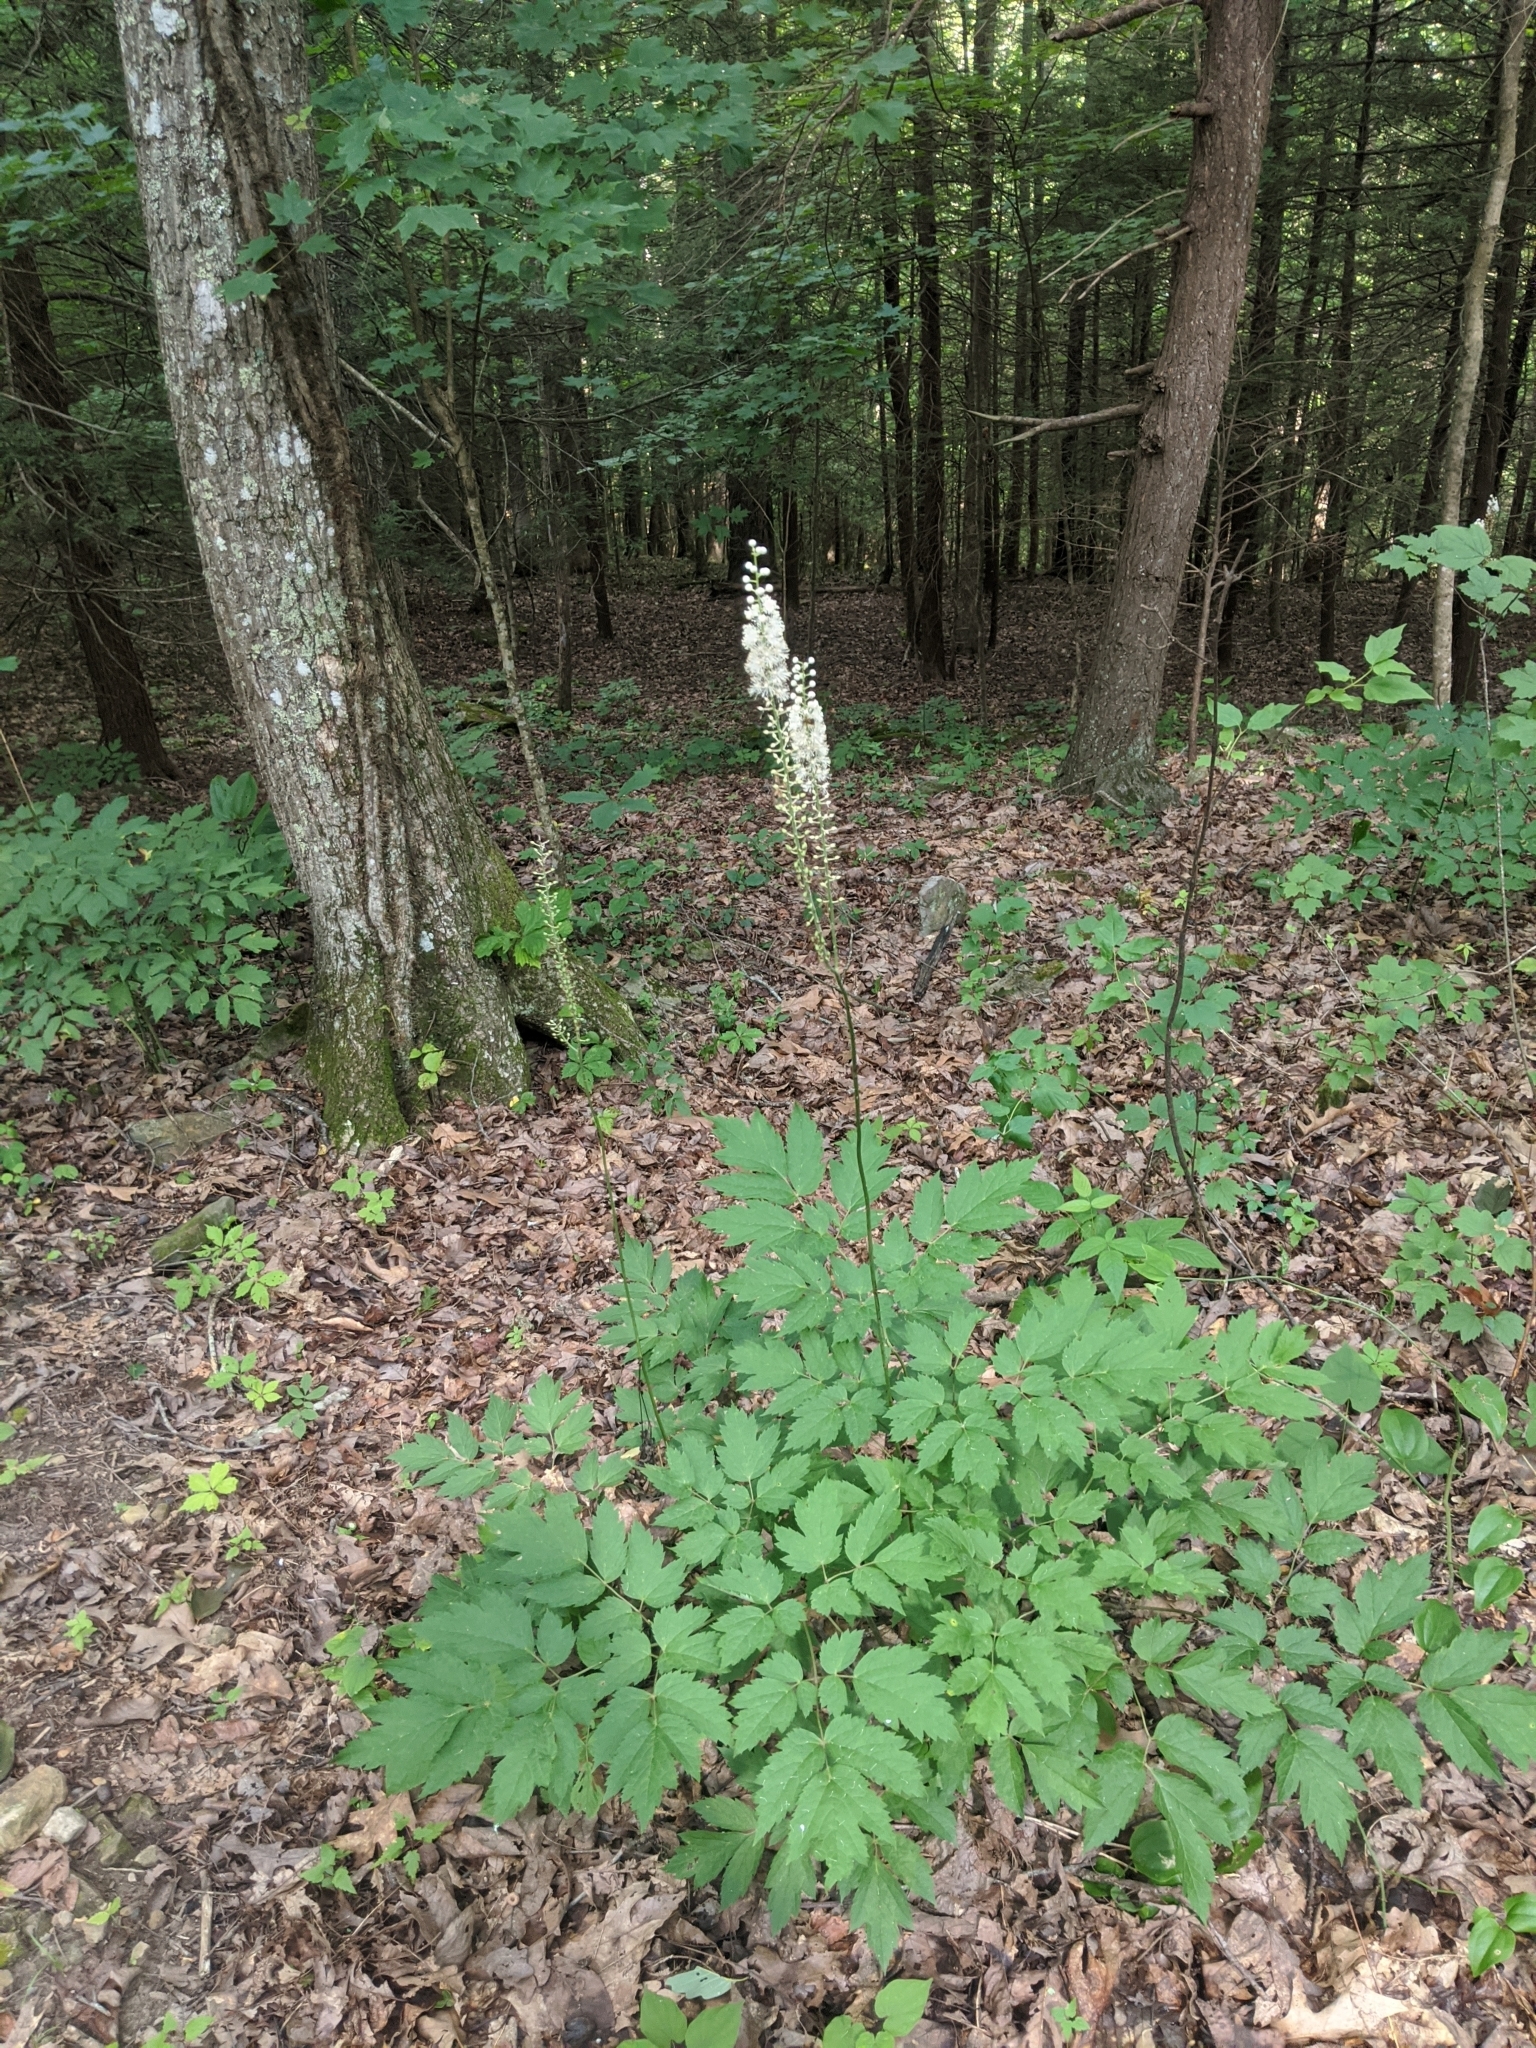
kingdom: Plantae
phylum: Tracheophyta
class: Magnoliopsida
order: Ranunculales
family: Ranunculaceae
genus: Actaea
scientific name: Actaea racemosa
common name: Black cohosh
